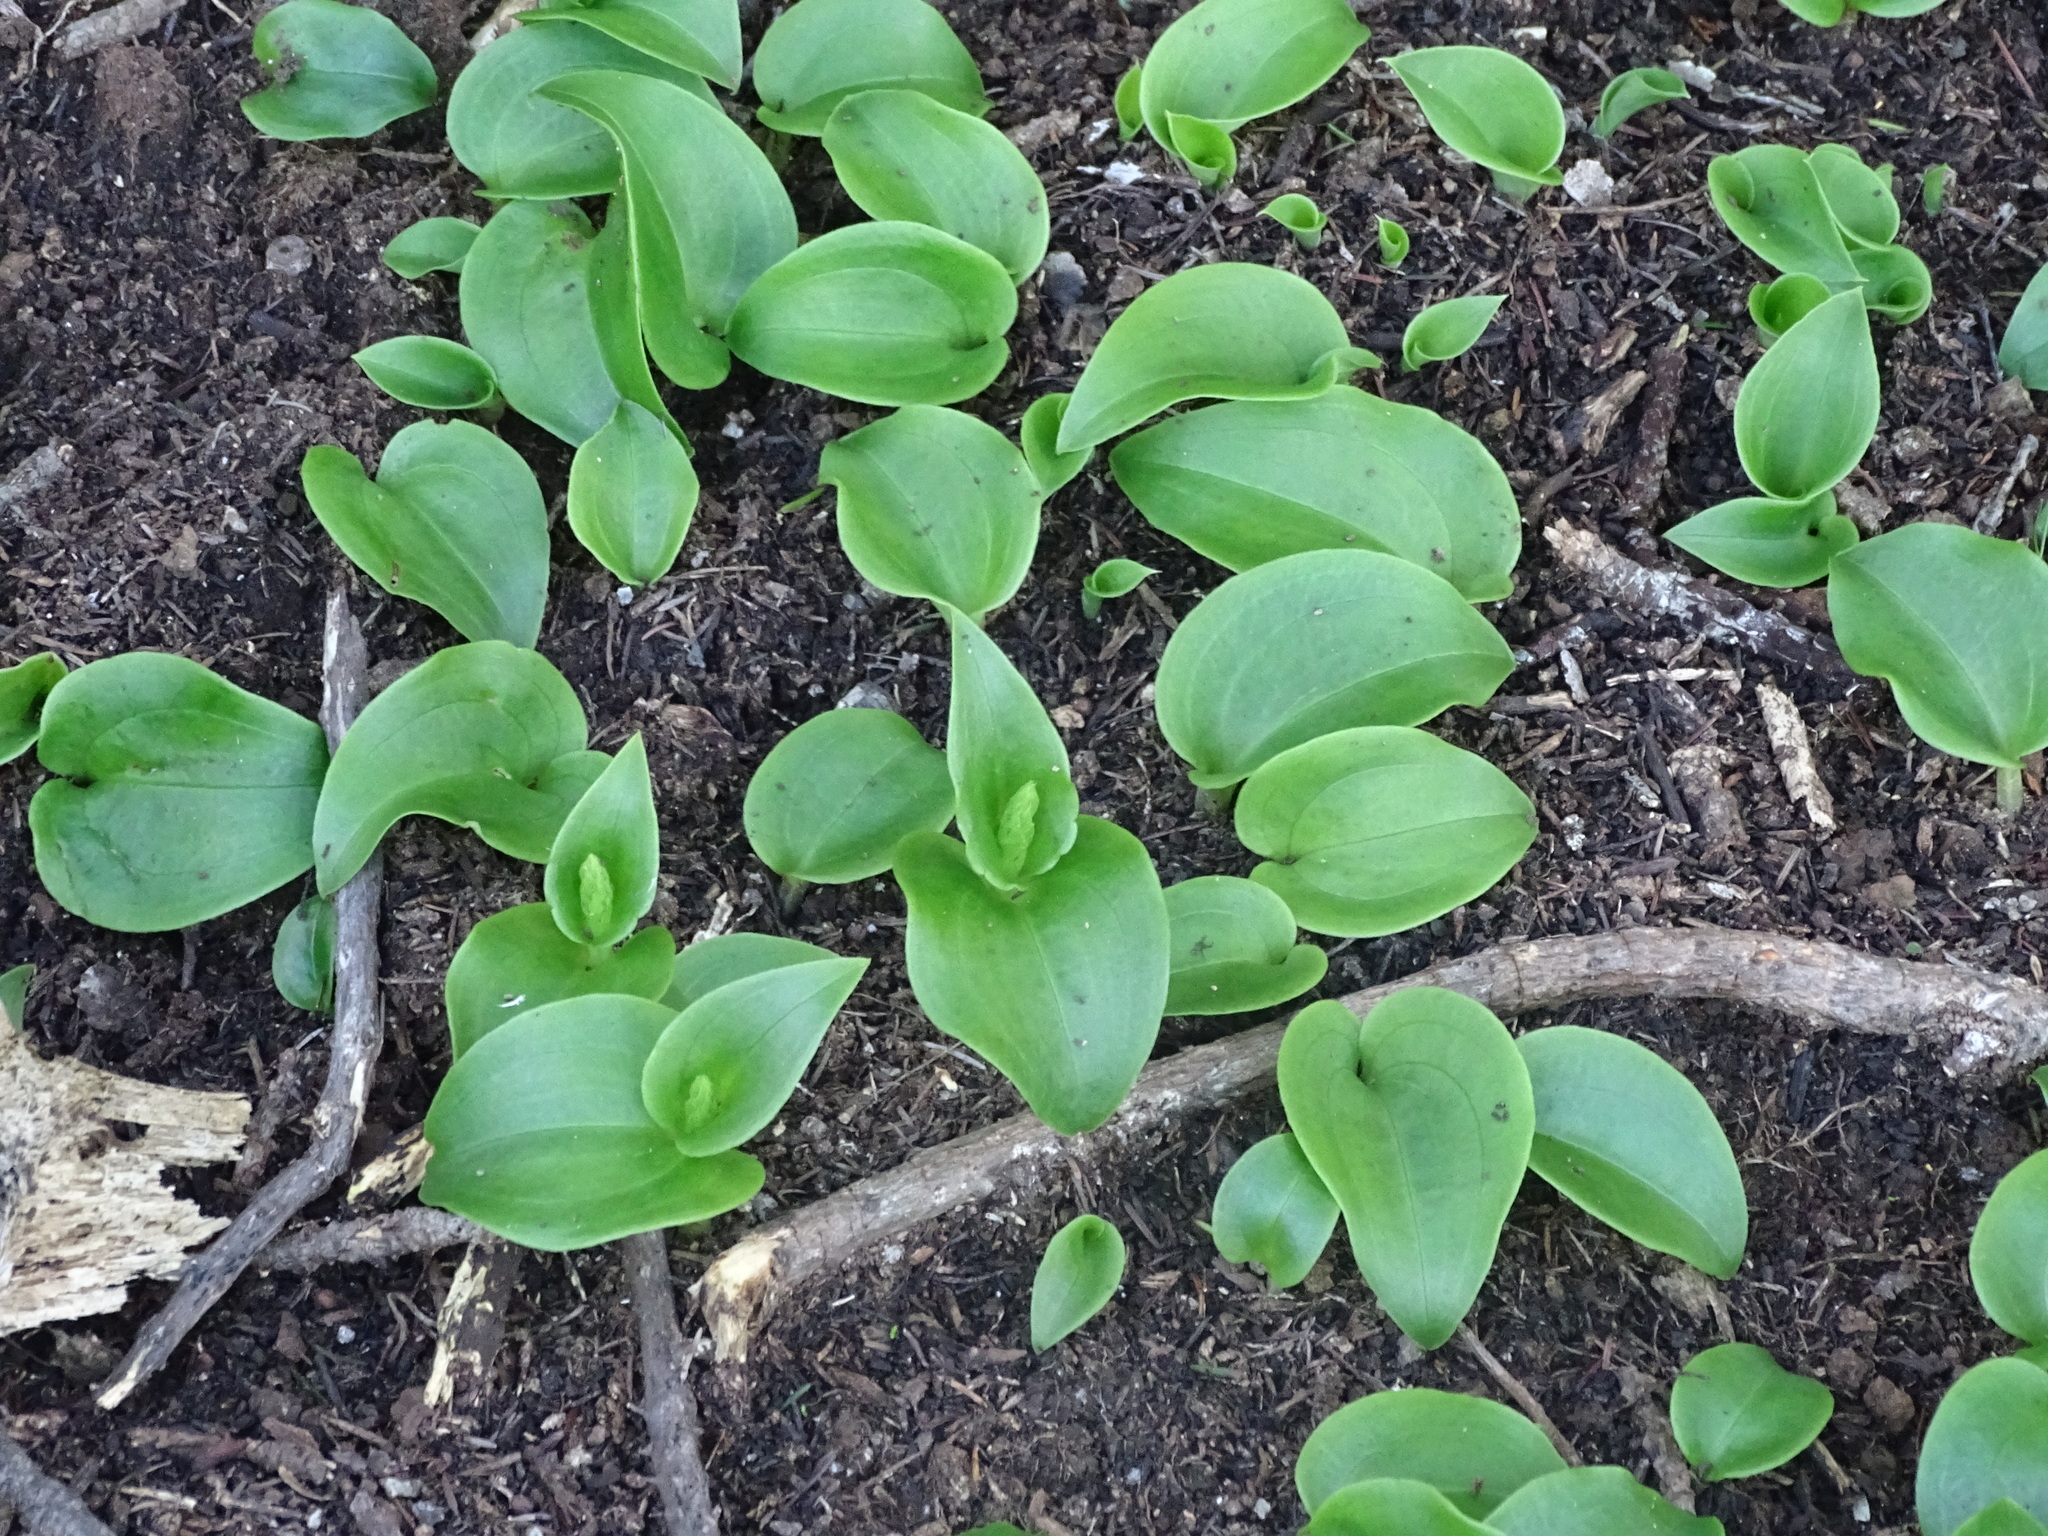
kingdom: Plantae
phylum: Tracheophyta
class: Liliopsida
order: Asparagales
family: Orchidaceae
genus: Gennaria
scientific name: Gennaria diphylla
